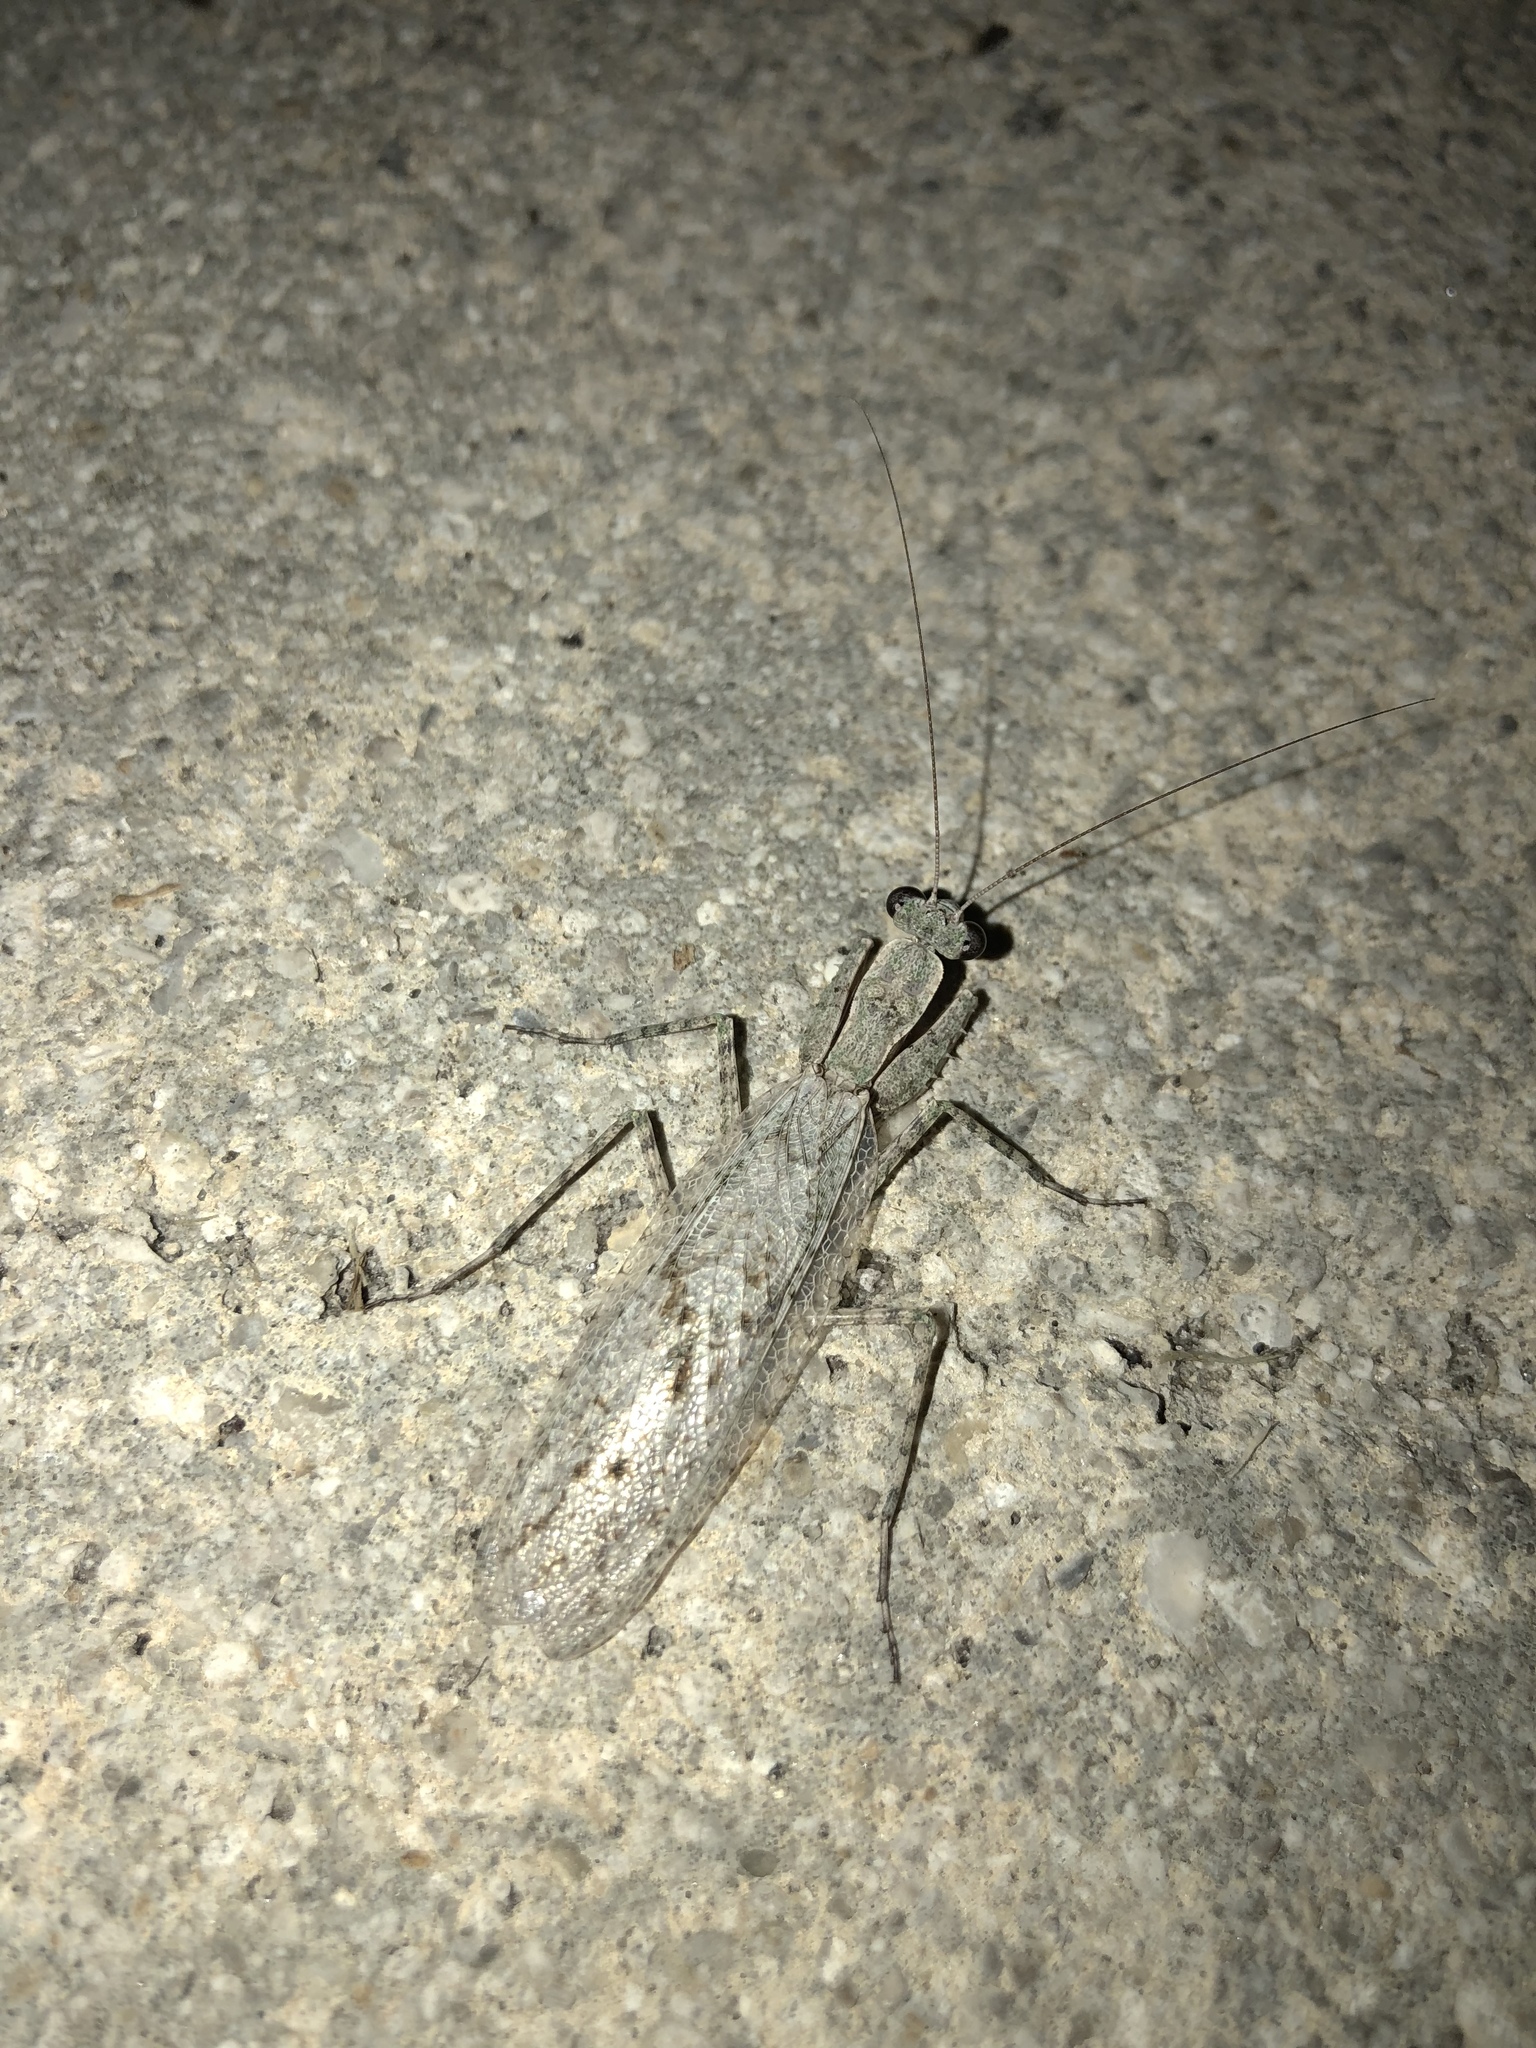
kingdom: Animalia
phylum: Arthropoda
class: Insecta
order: Mantodea
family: Epaphroditidae
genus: Gonatista
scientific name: Gonatista grisea
